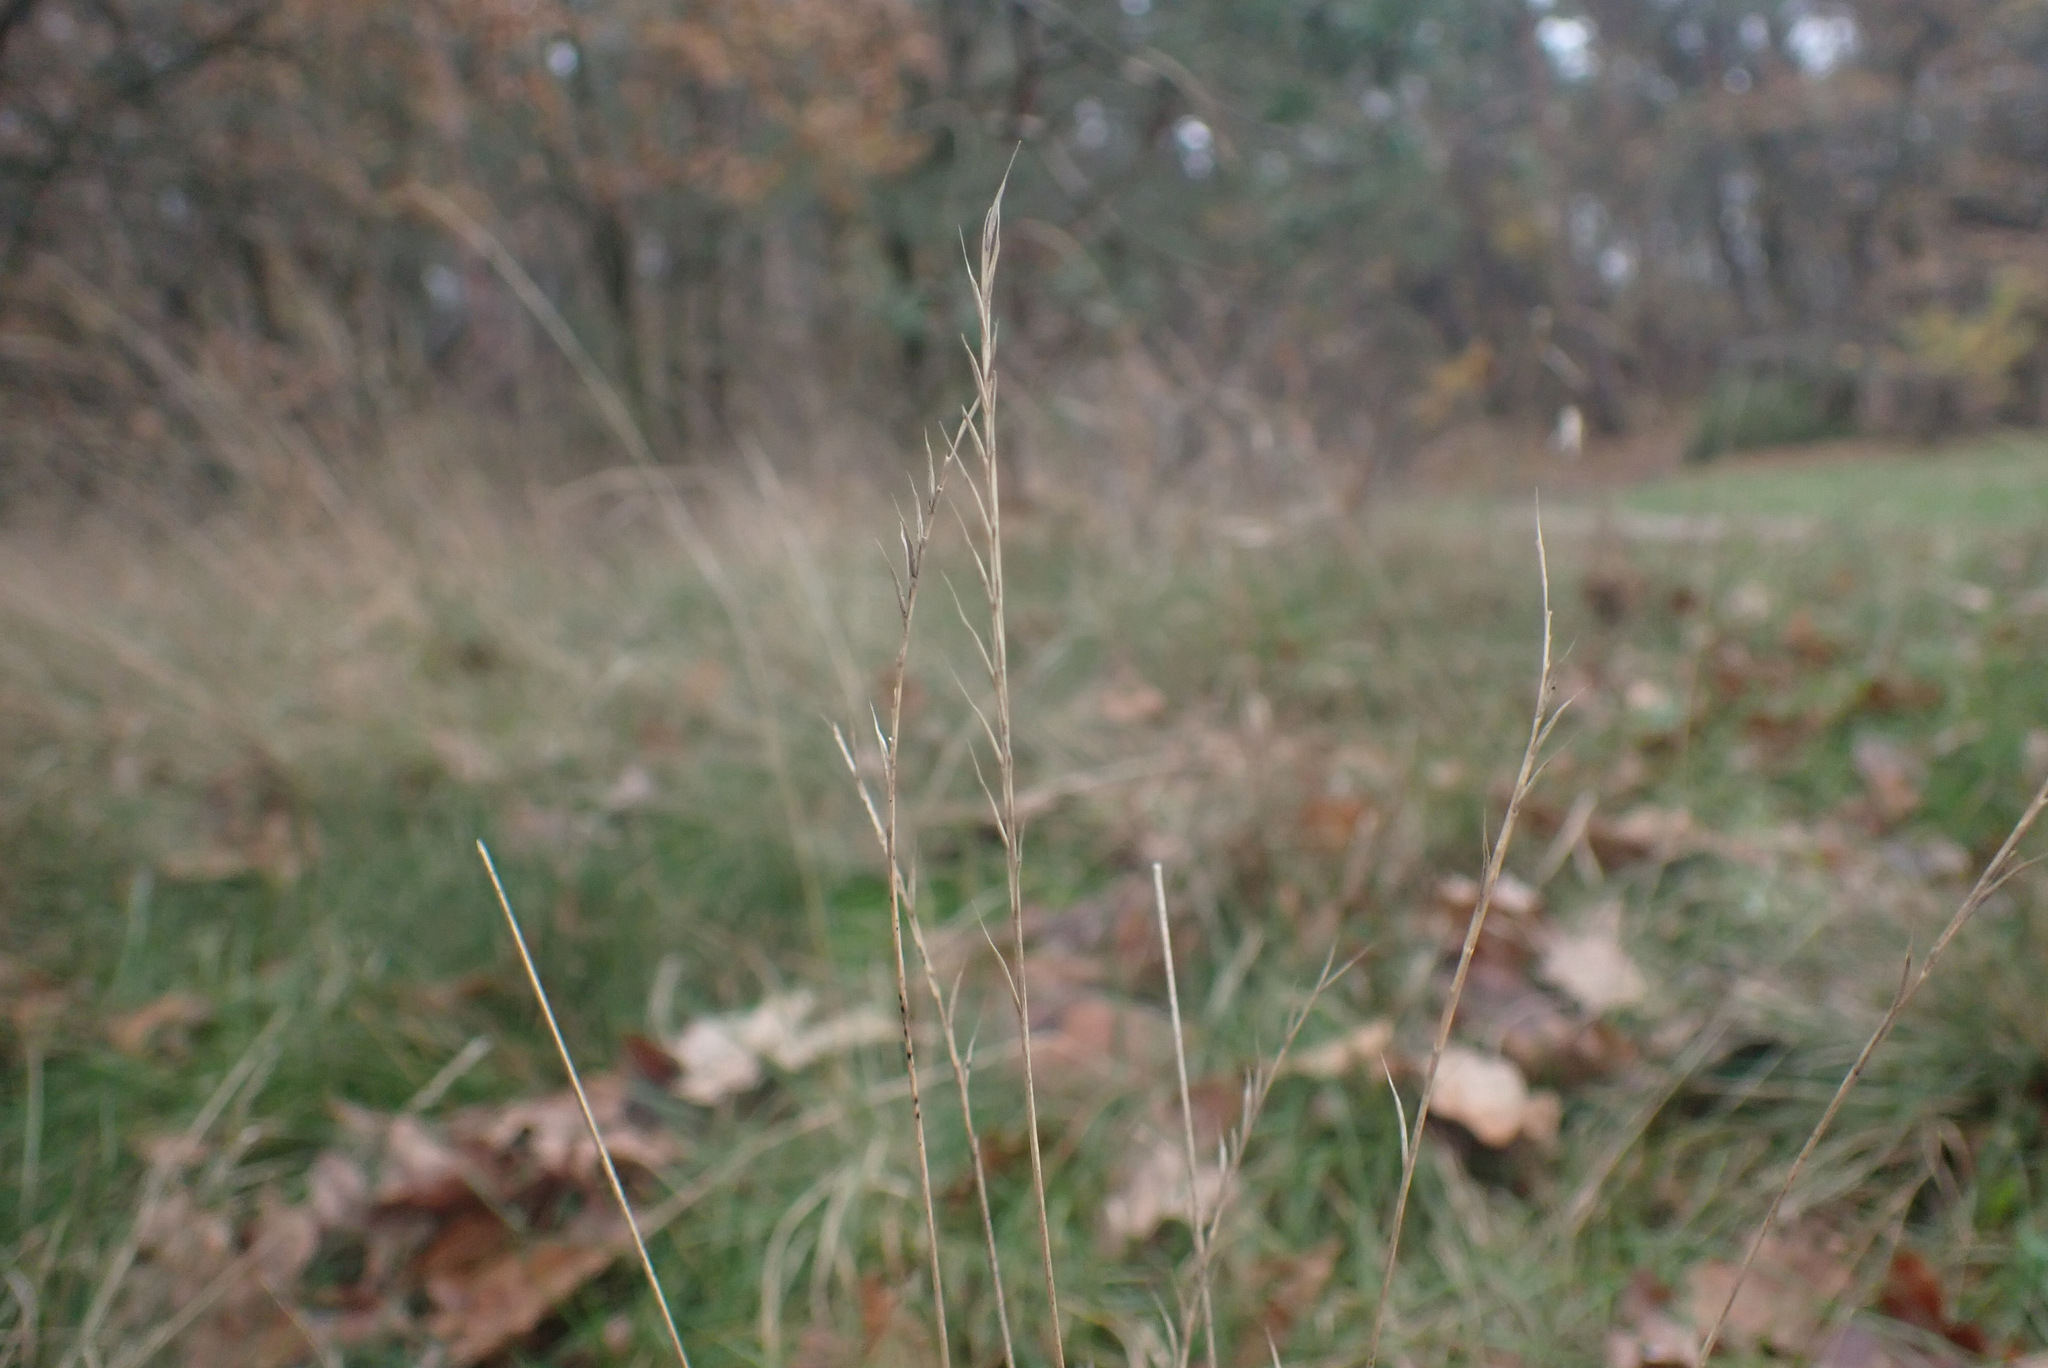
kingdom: Plantae
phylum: Tracheophyta
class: Liliopsida
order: Poales
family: Poaceae
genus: Nardus
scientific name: Nardus stricta
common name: Mat-grass
